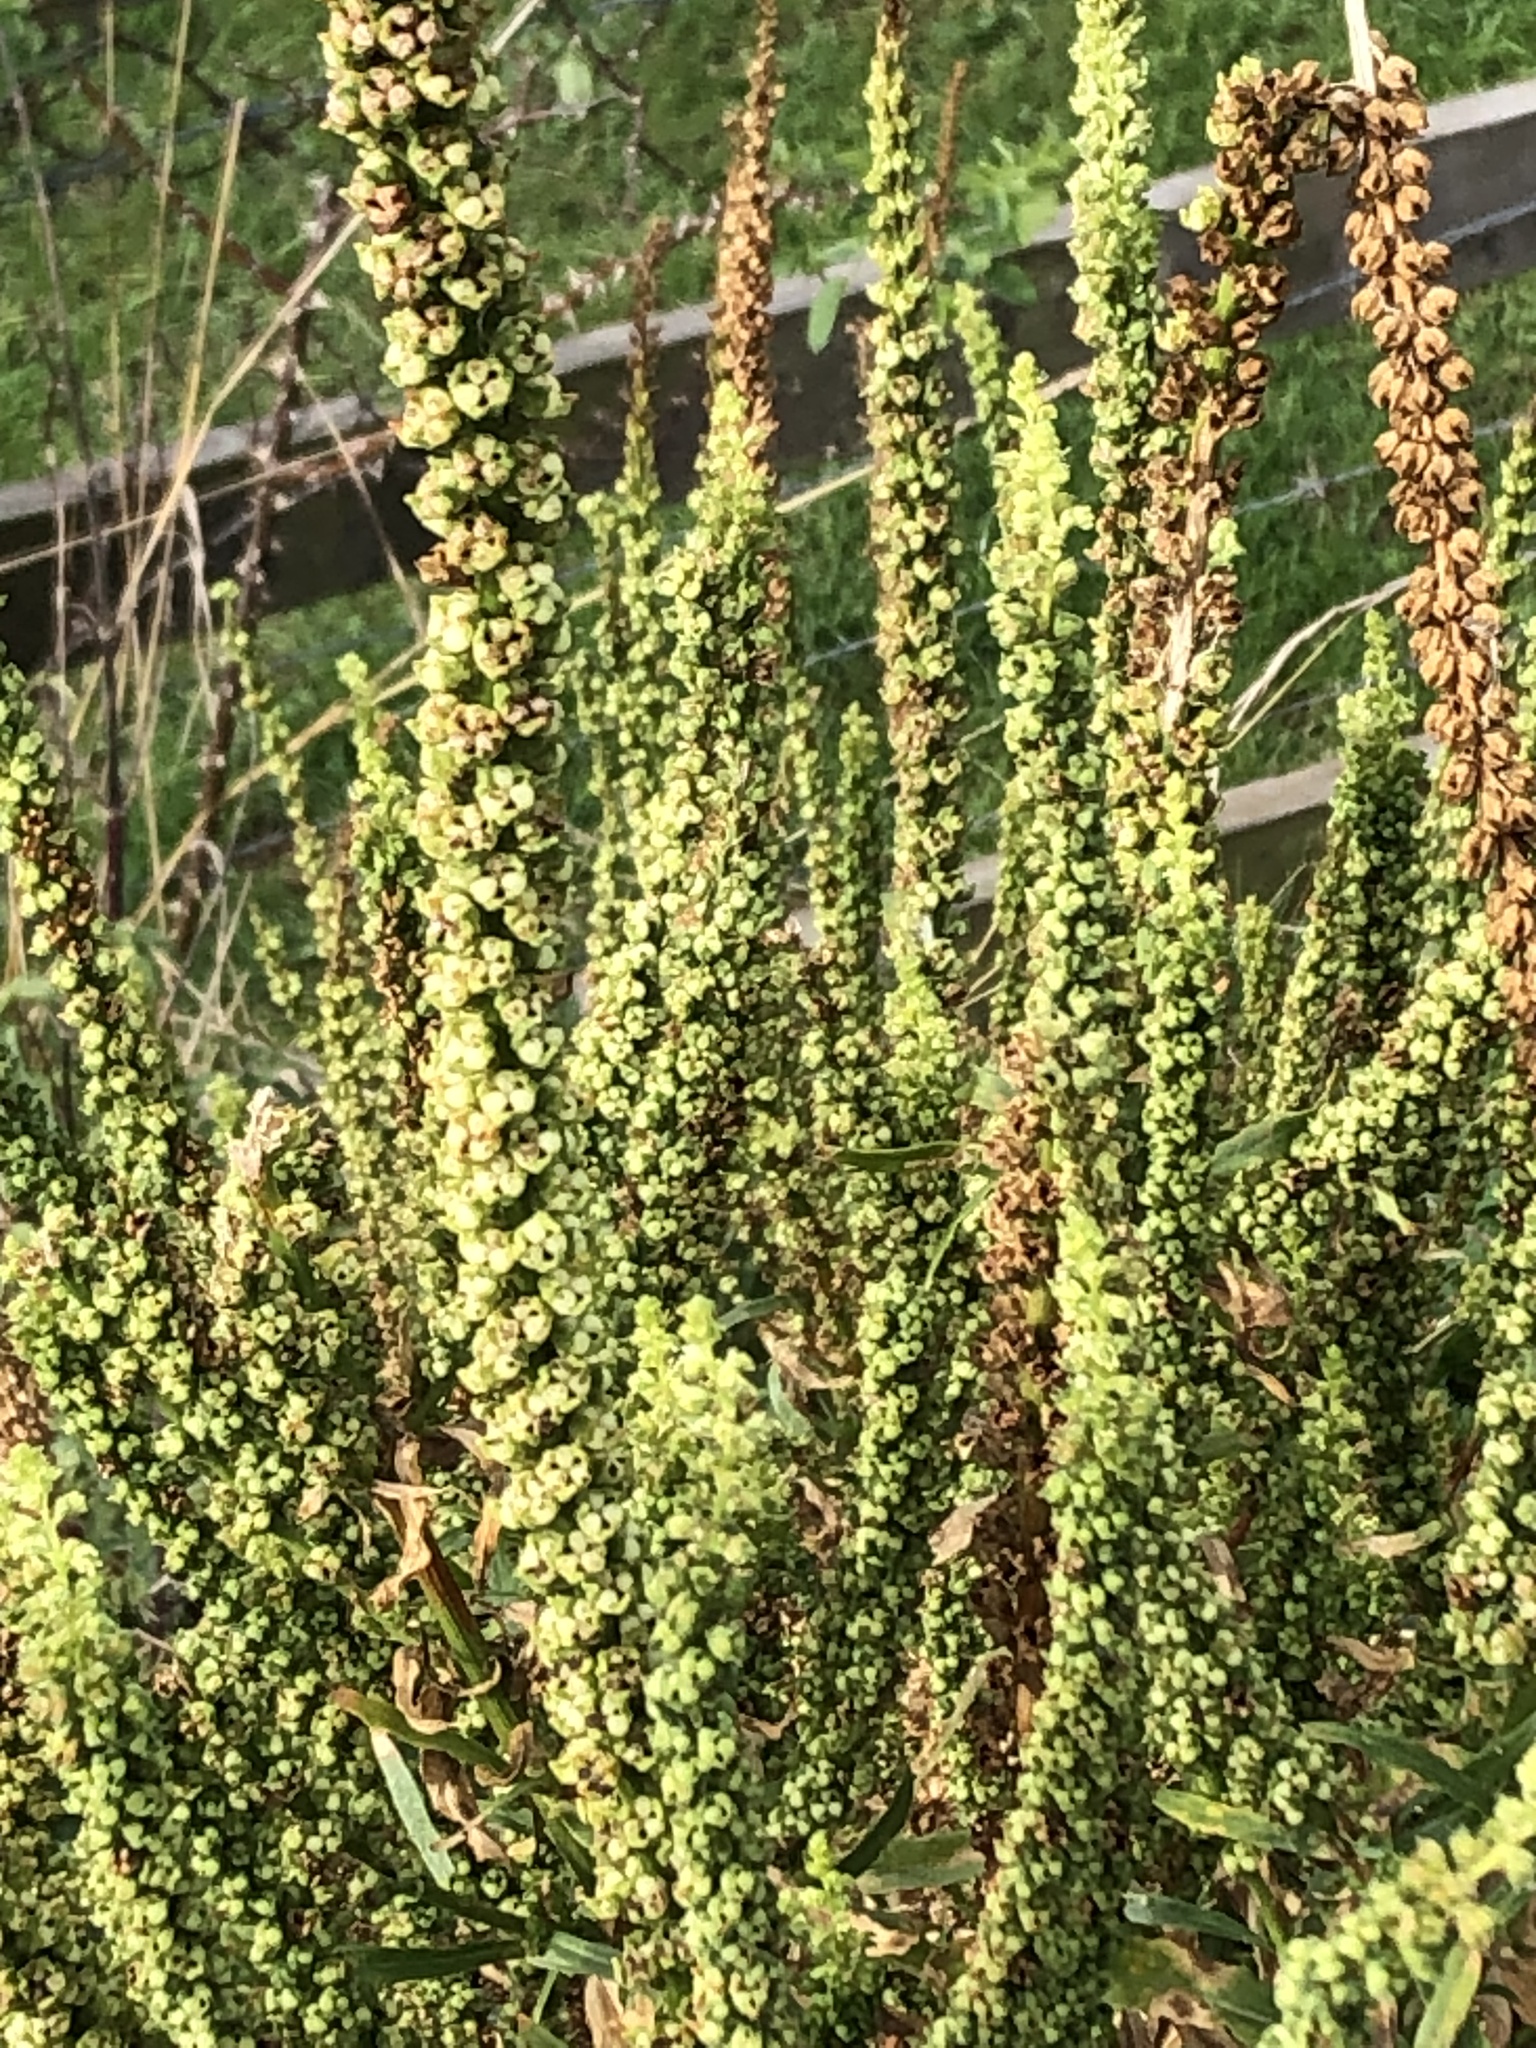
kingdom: Plantae
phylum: Tracheophyta
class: Magnoliopsida
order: Caryophyllales
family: Polygonaceae
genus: Rumex
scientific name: Rumex crispus
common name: Curled dock
